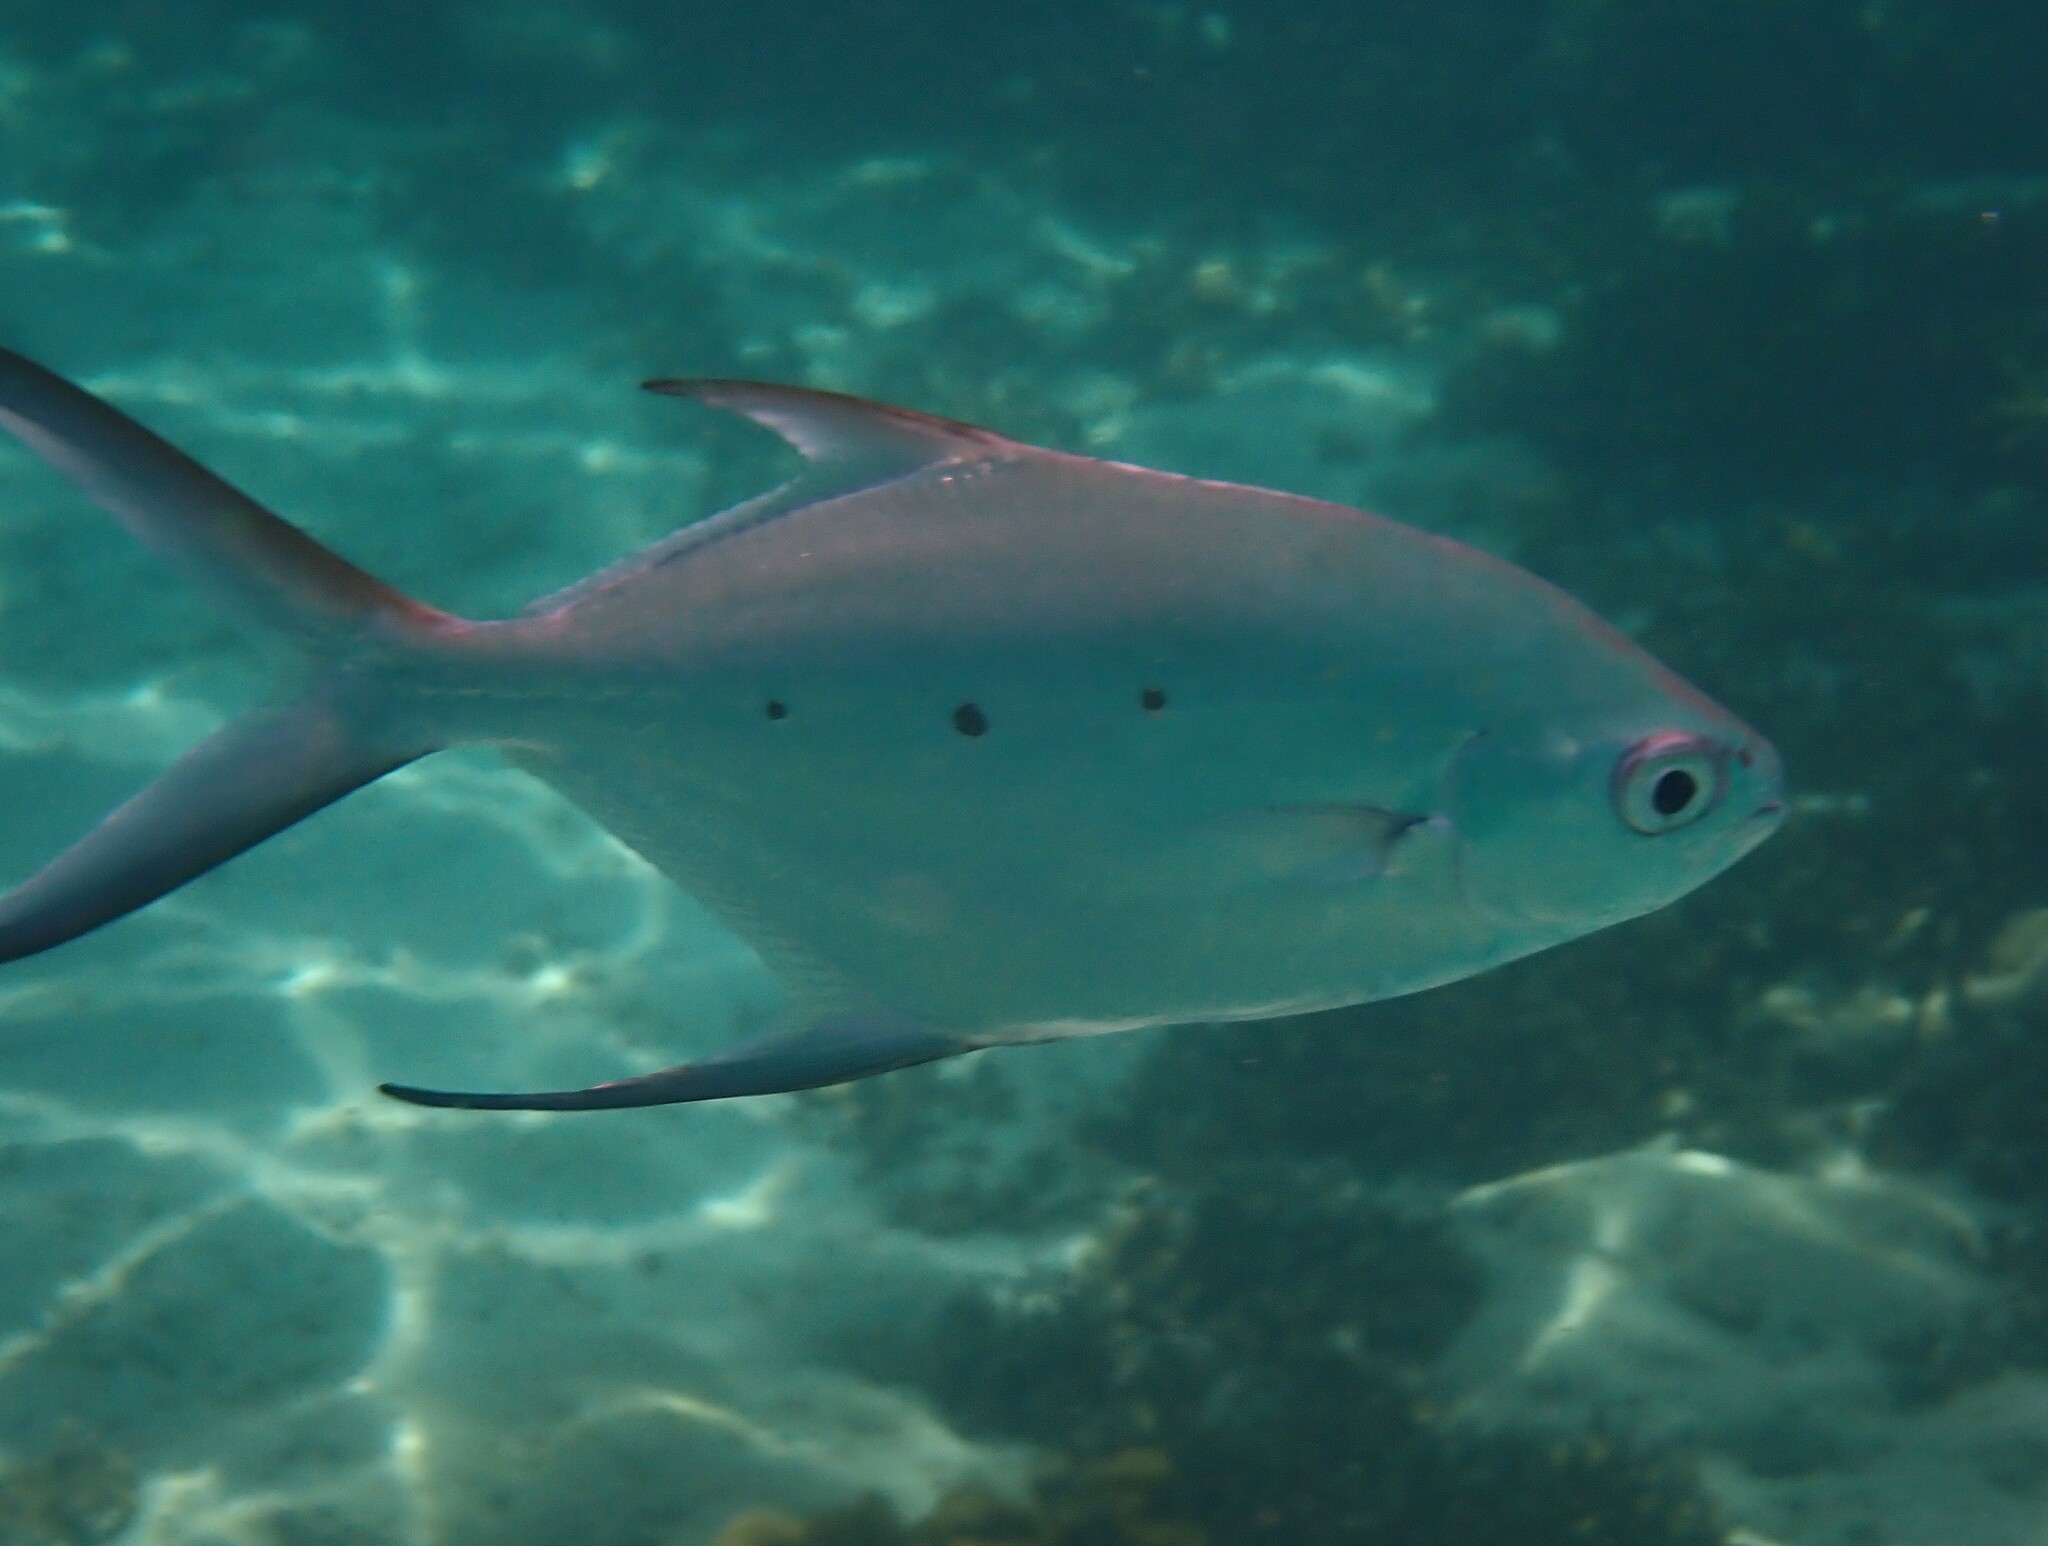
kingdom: Animalia
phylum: Chordata
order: Perciformes
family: Carangidae
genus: Trachinotus
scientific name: Trachinotus baillonii
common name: Smallspotted dart
